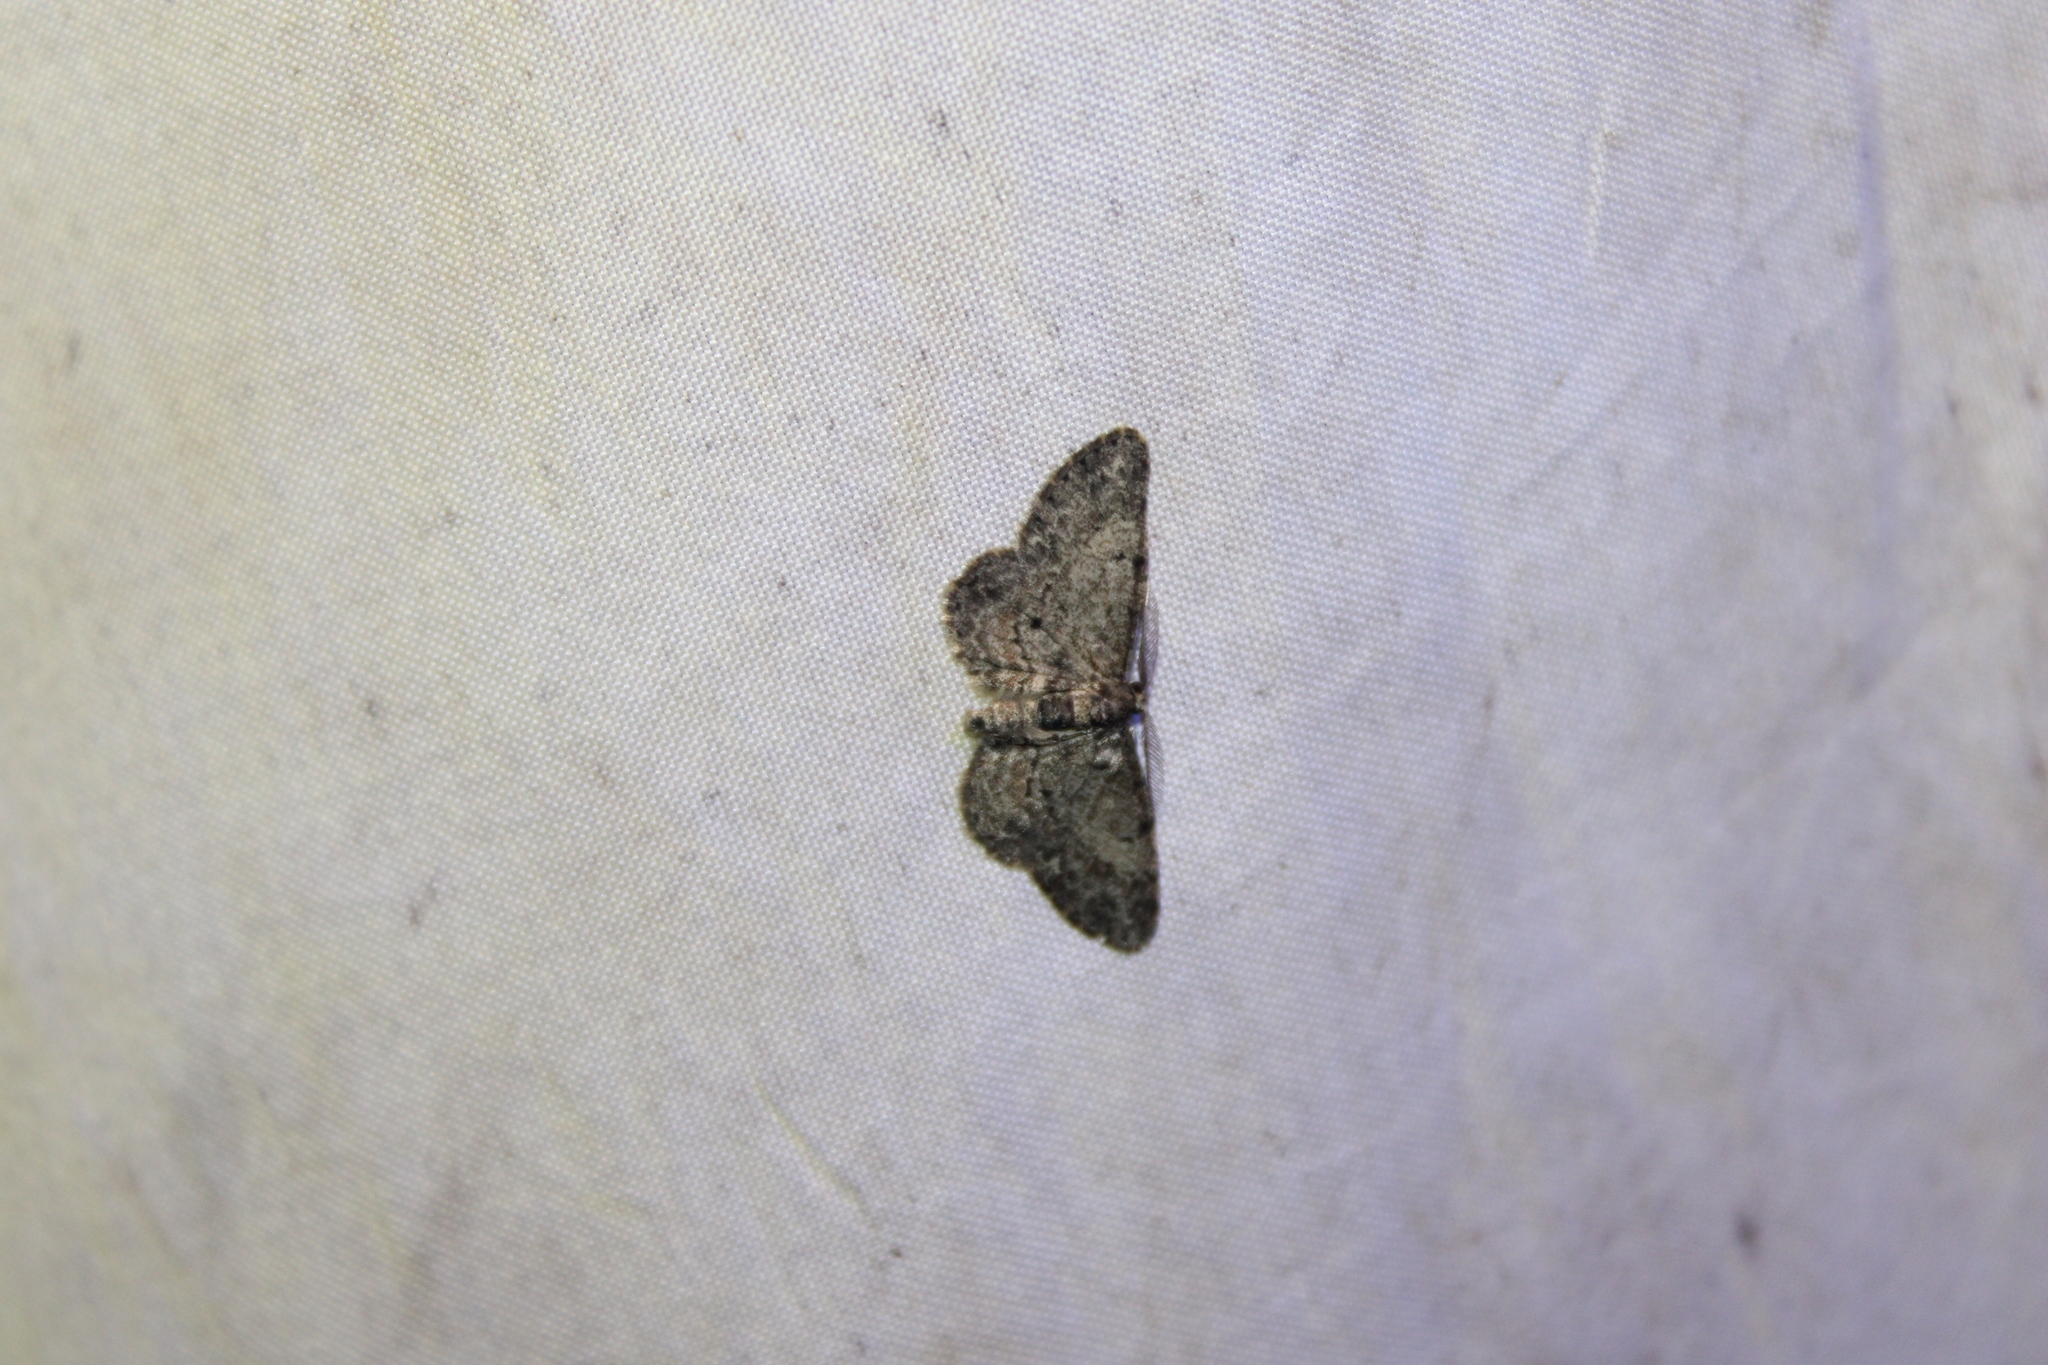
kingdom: Animalia
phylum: Arthropoda
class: Insecta
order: Lepidoptera
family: Geometridae
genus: Glenoides
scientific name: Glenoides texanaria
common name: Texas gray
